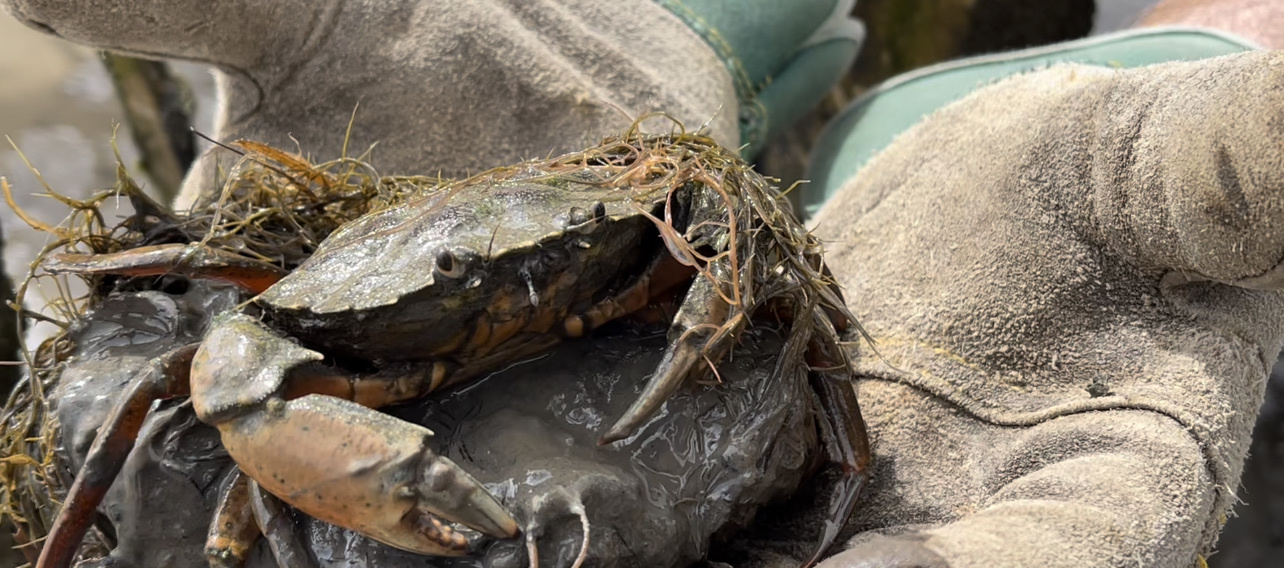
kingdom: Animalia
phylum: Arthropoda
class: Malacostraca
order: Decapoda
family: Carcinidae
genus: Carcinus
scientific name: Carcinus maenas
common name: European green crab
